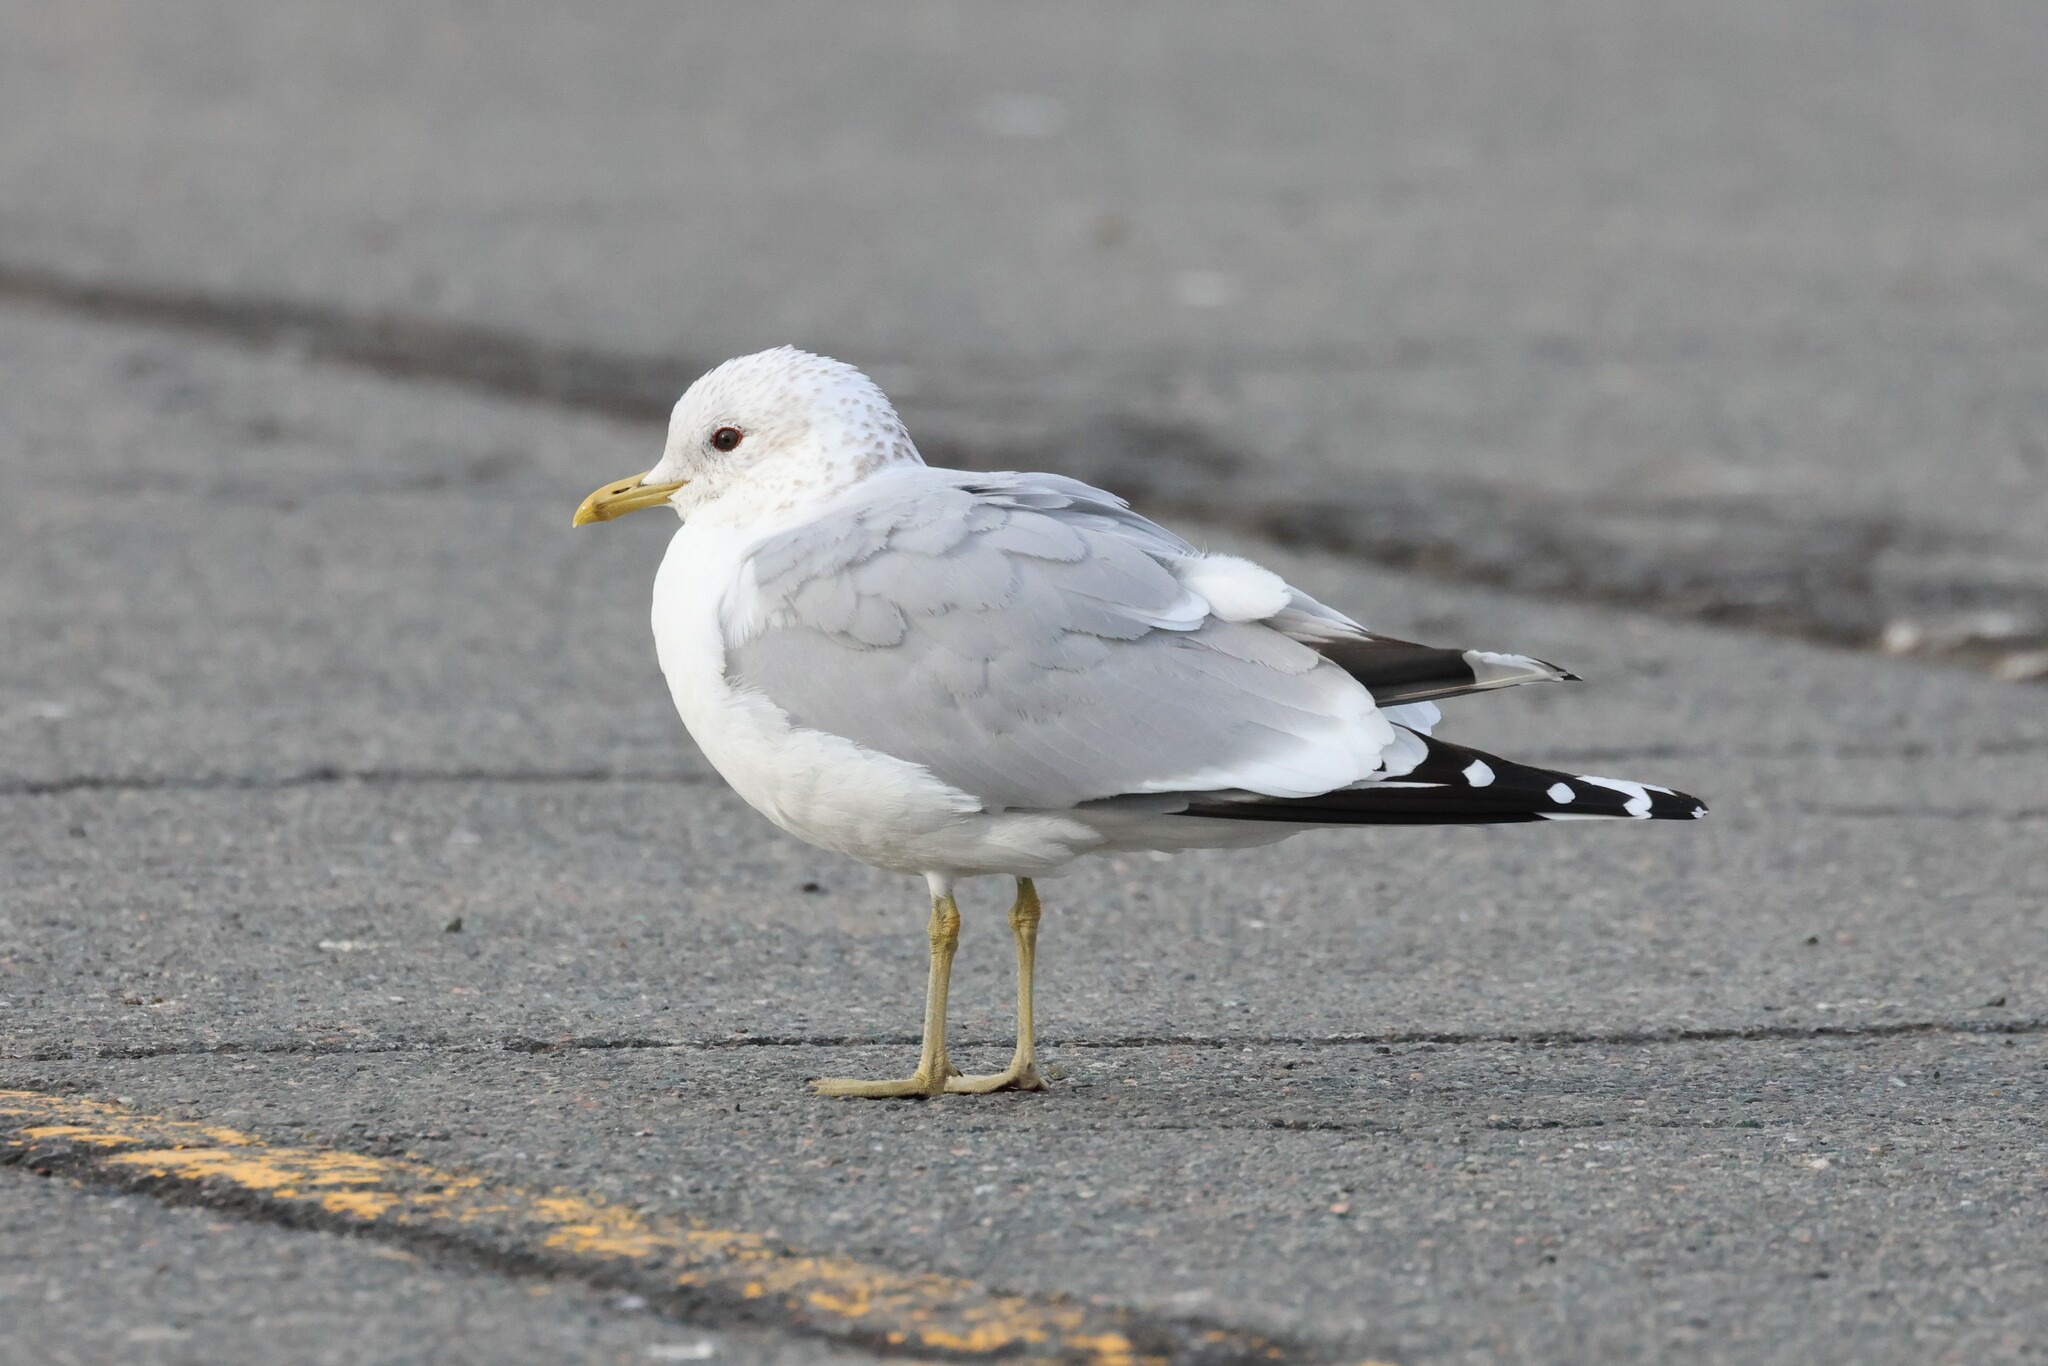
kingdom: Animalia
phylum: Chordata
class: Aves
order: Charadriiformes
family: Laridae
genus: Larus
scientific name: Larus canus
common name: Mew gull
